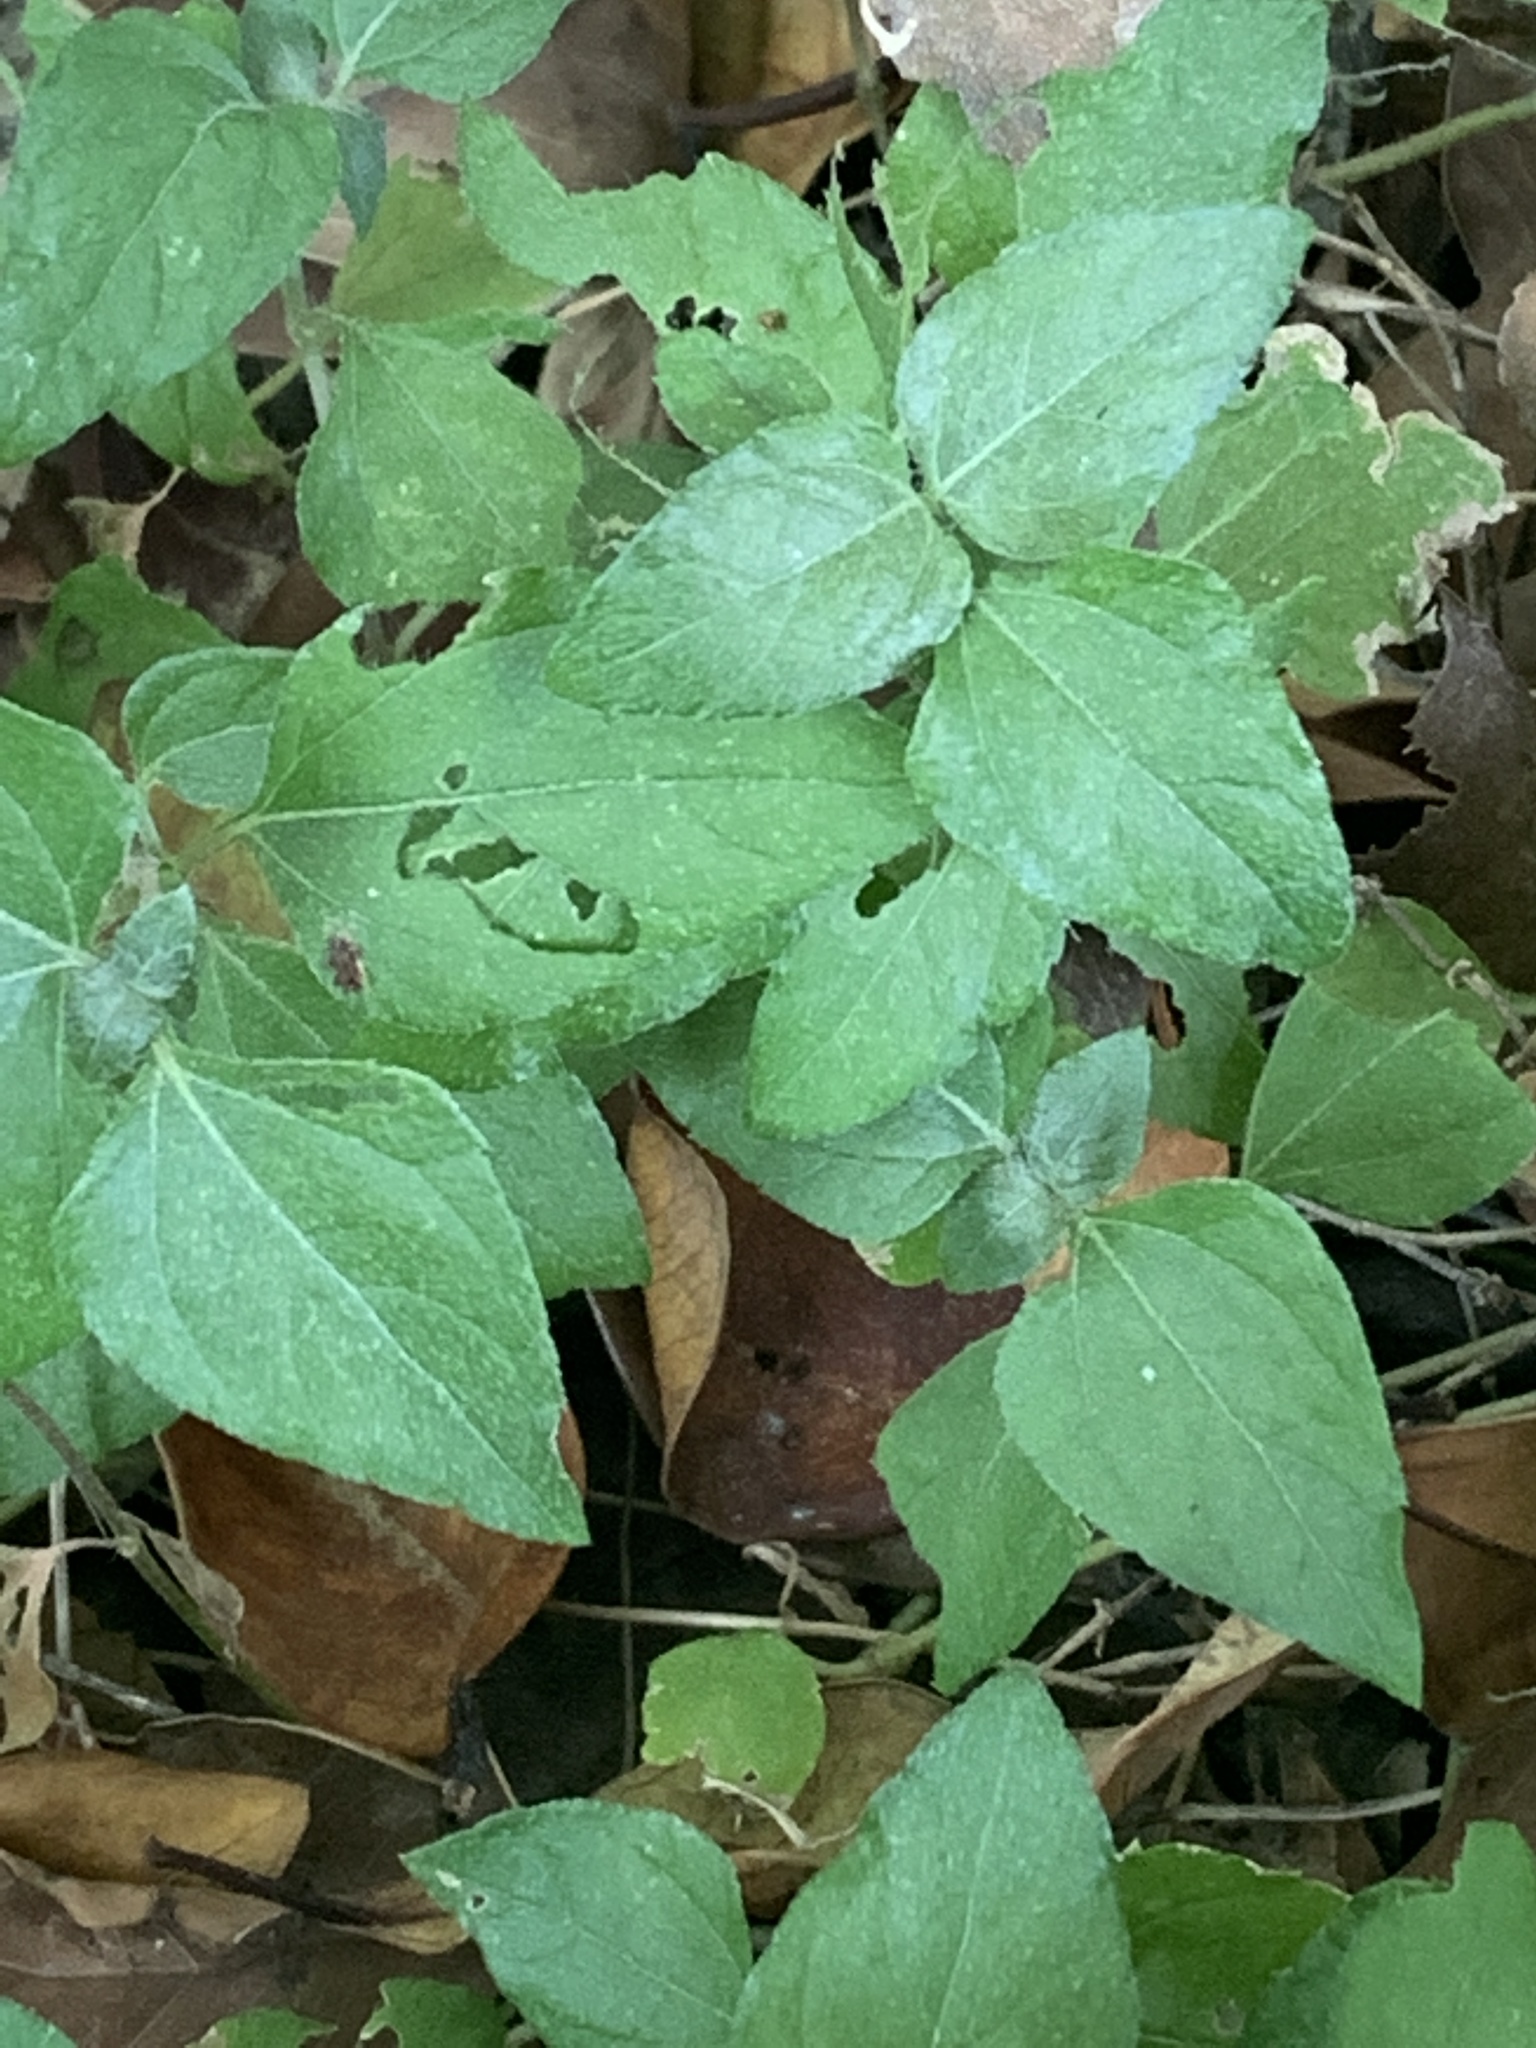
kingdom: Plantae
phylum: Tracheophyta
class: Magnoliopsida
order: Asterales
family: Asteraceae
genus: Calyptocarpus
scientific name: Calyptocarpus vialis
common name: Straggler daisy
